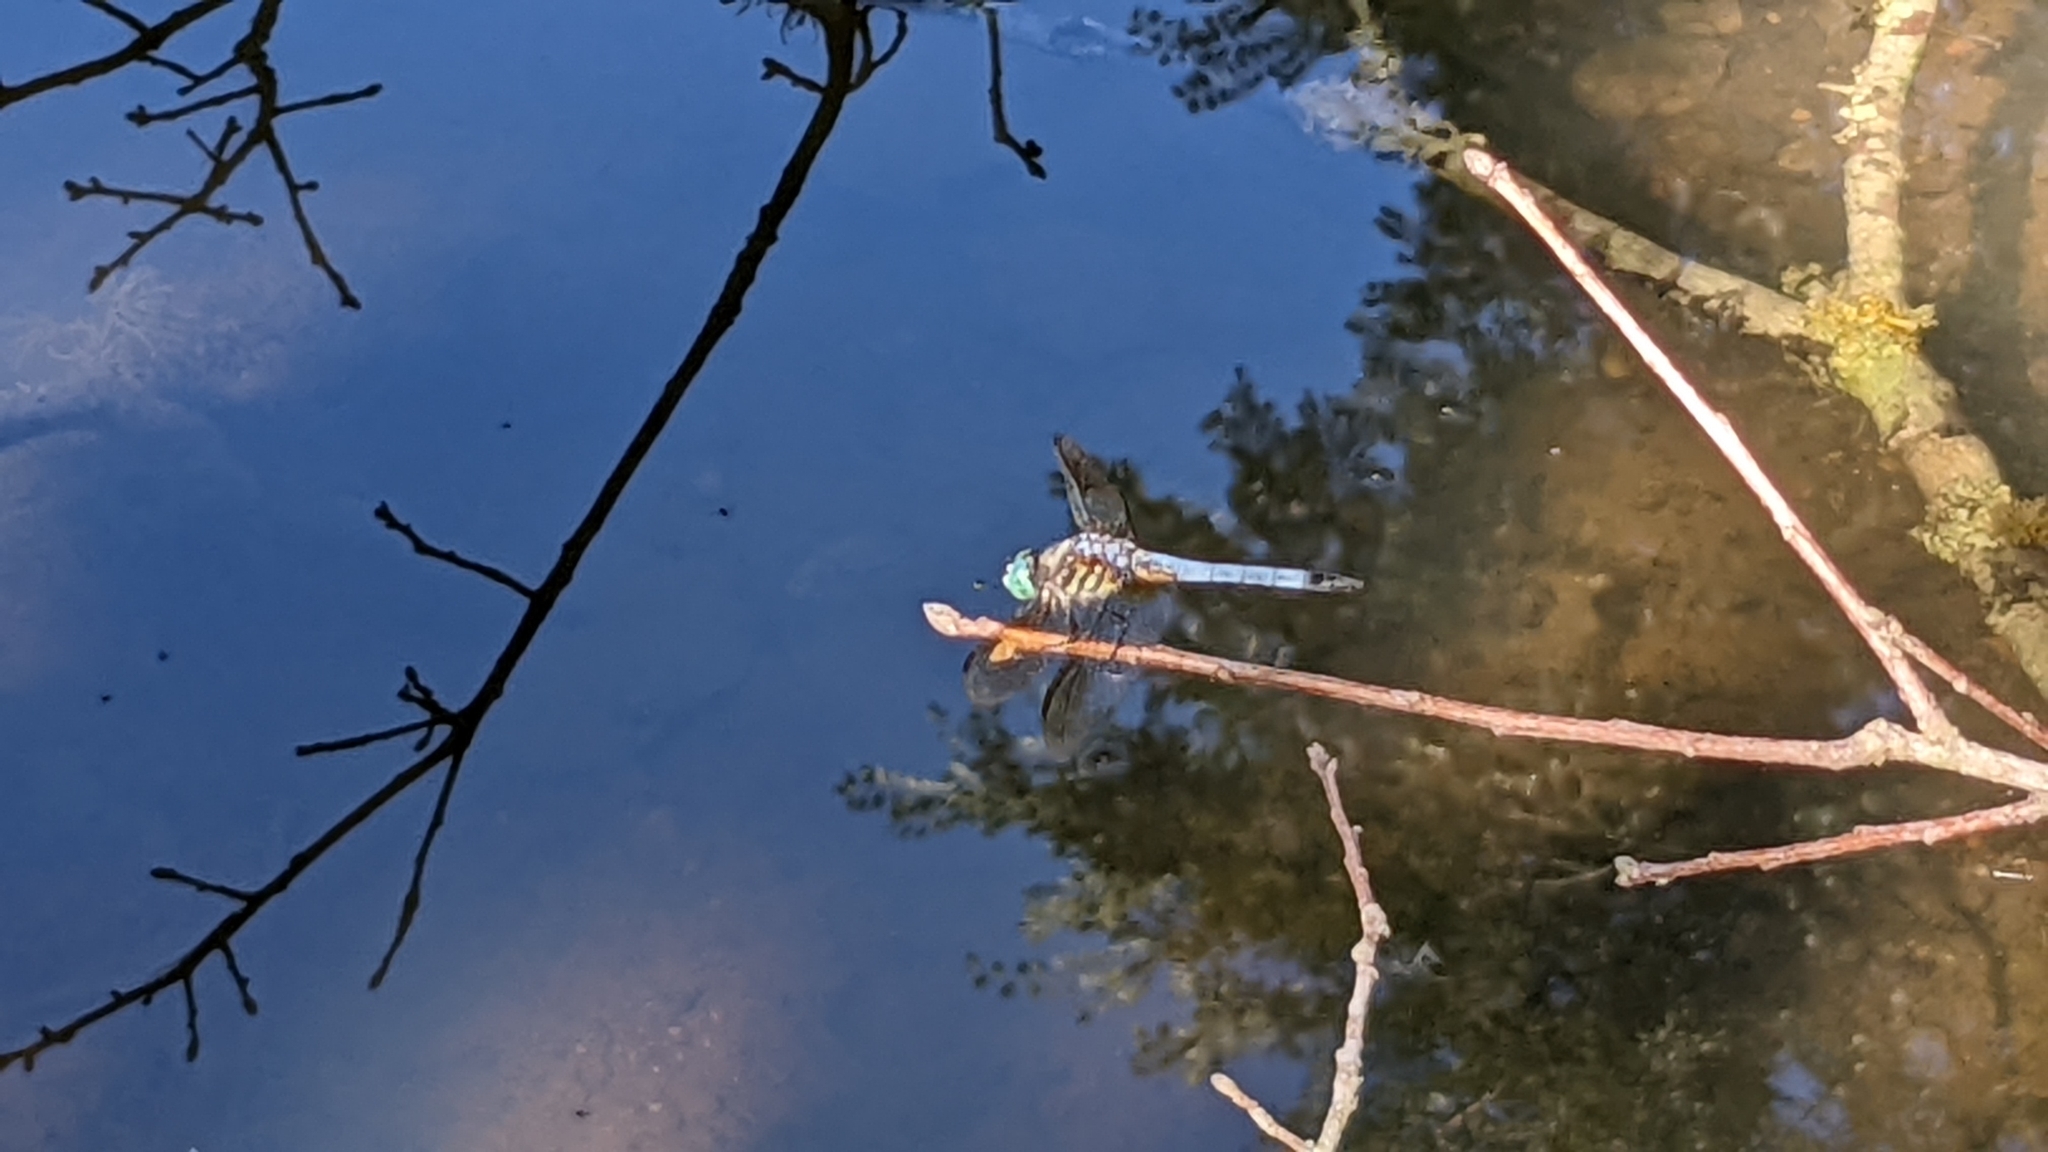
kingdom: Animalia
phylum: Arthropoda
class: Insecta
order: Odonata
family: Libellulidae
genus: Pachydiplax
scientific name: Pachydiplax longipennis
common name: Blue dasher
